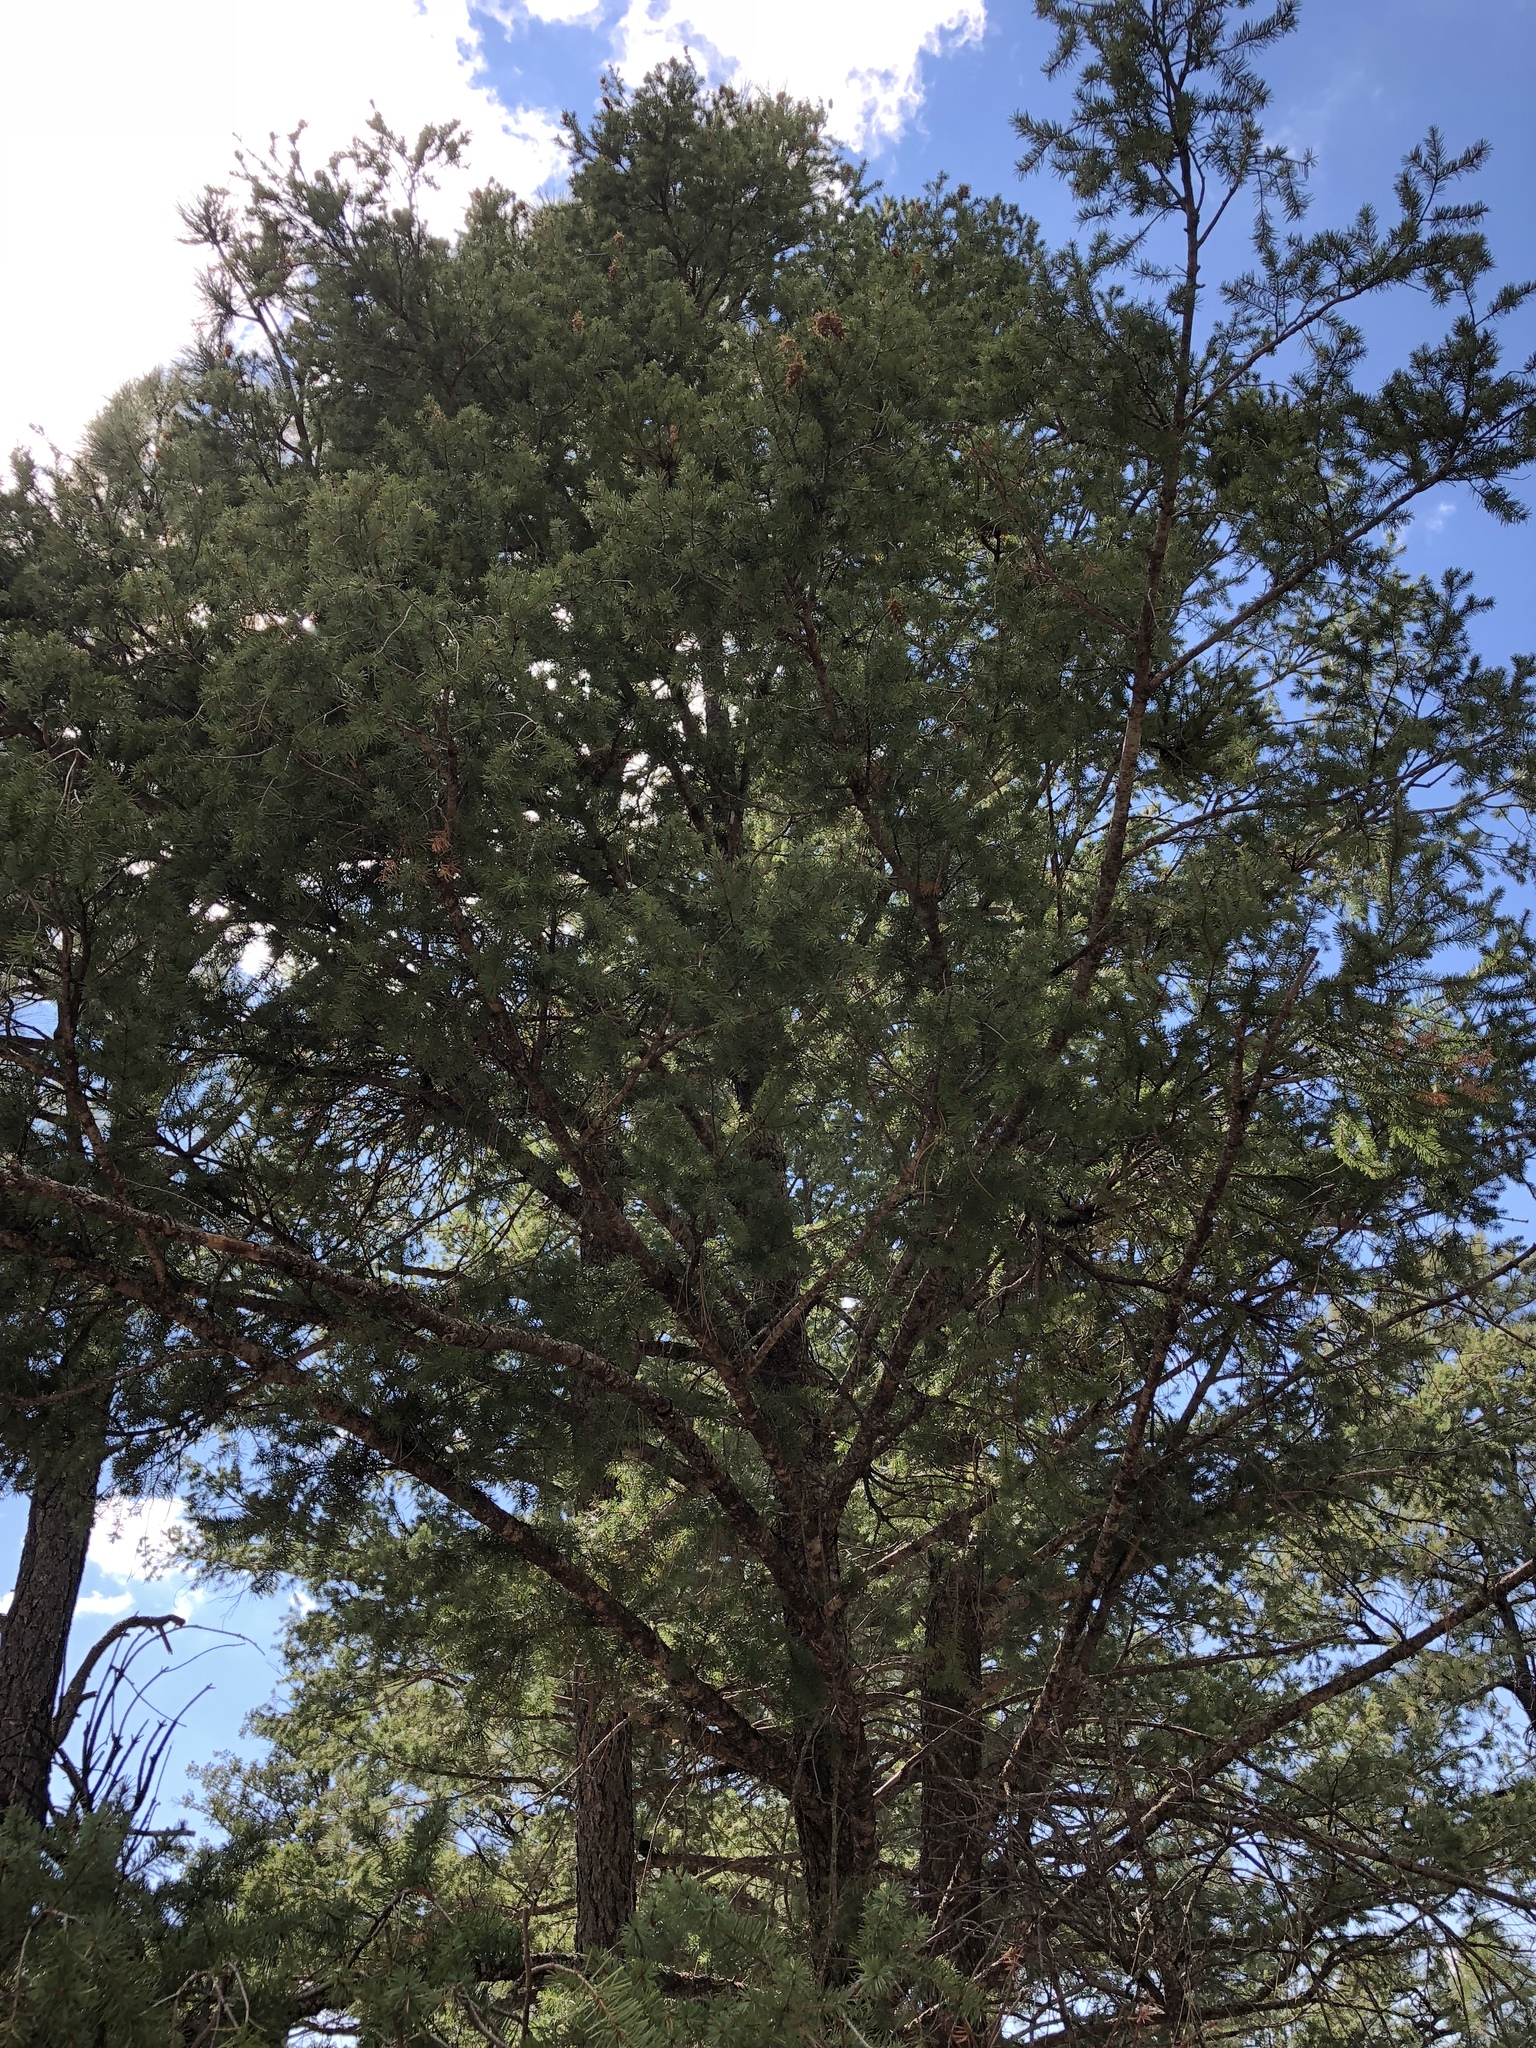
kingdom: Plantae
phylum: Tracheophyta
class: Pinopsida
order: Pinales
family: Pinaceae
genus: Pseudotsuga
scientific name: Pseudotsuga menziesii
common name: Douglas fir
